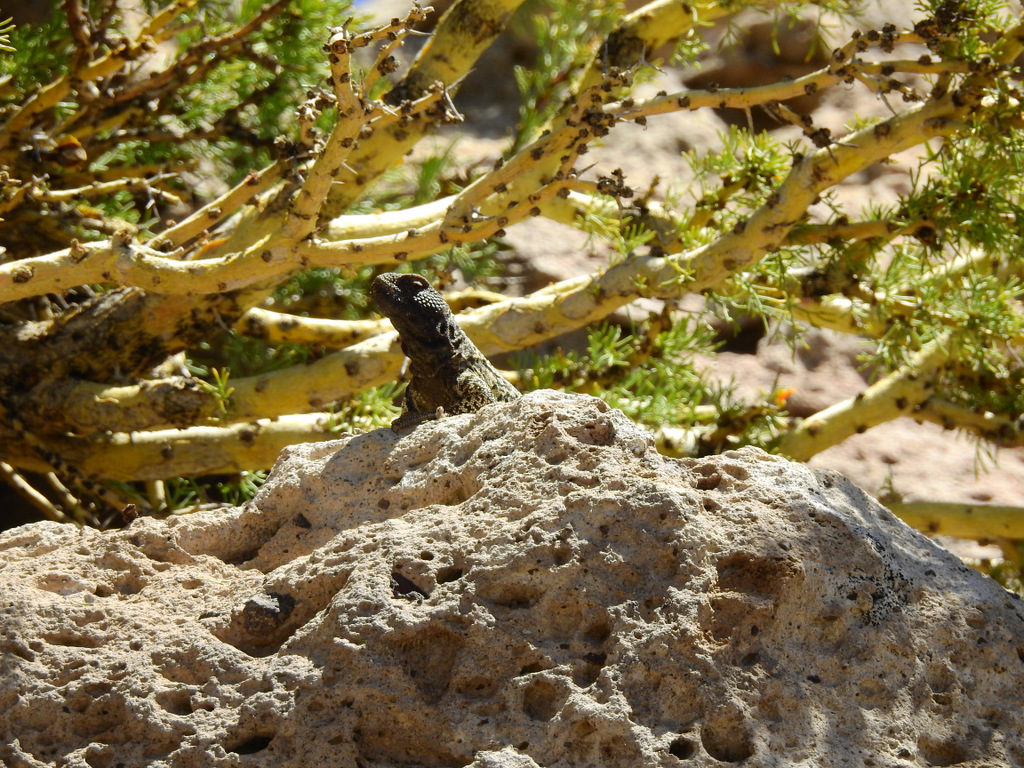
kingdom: Animalia
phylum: Chordata
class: Squamata
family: Liolaemidae
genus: Phymaturus
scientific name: Phymaturus verdugo
